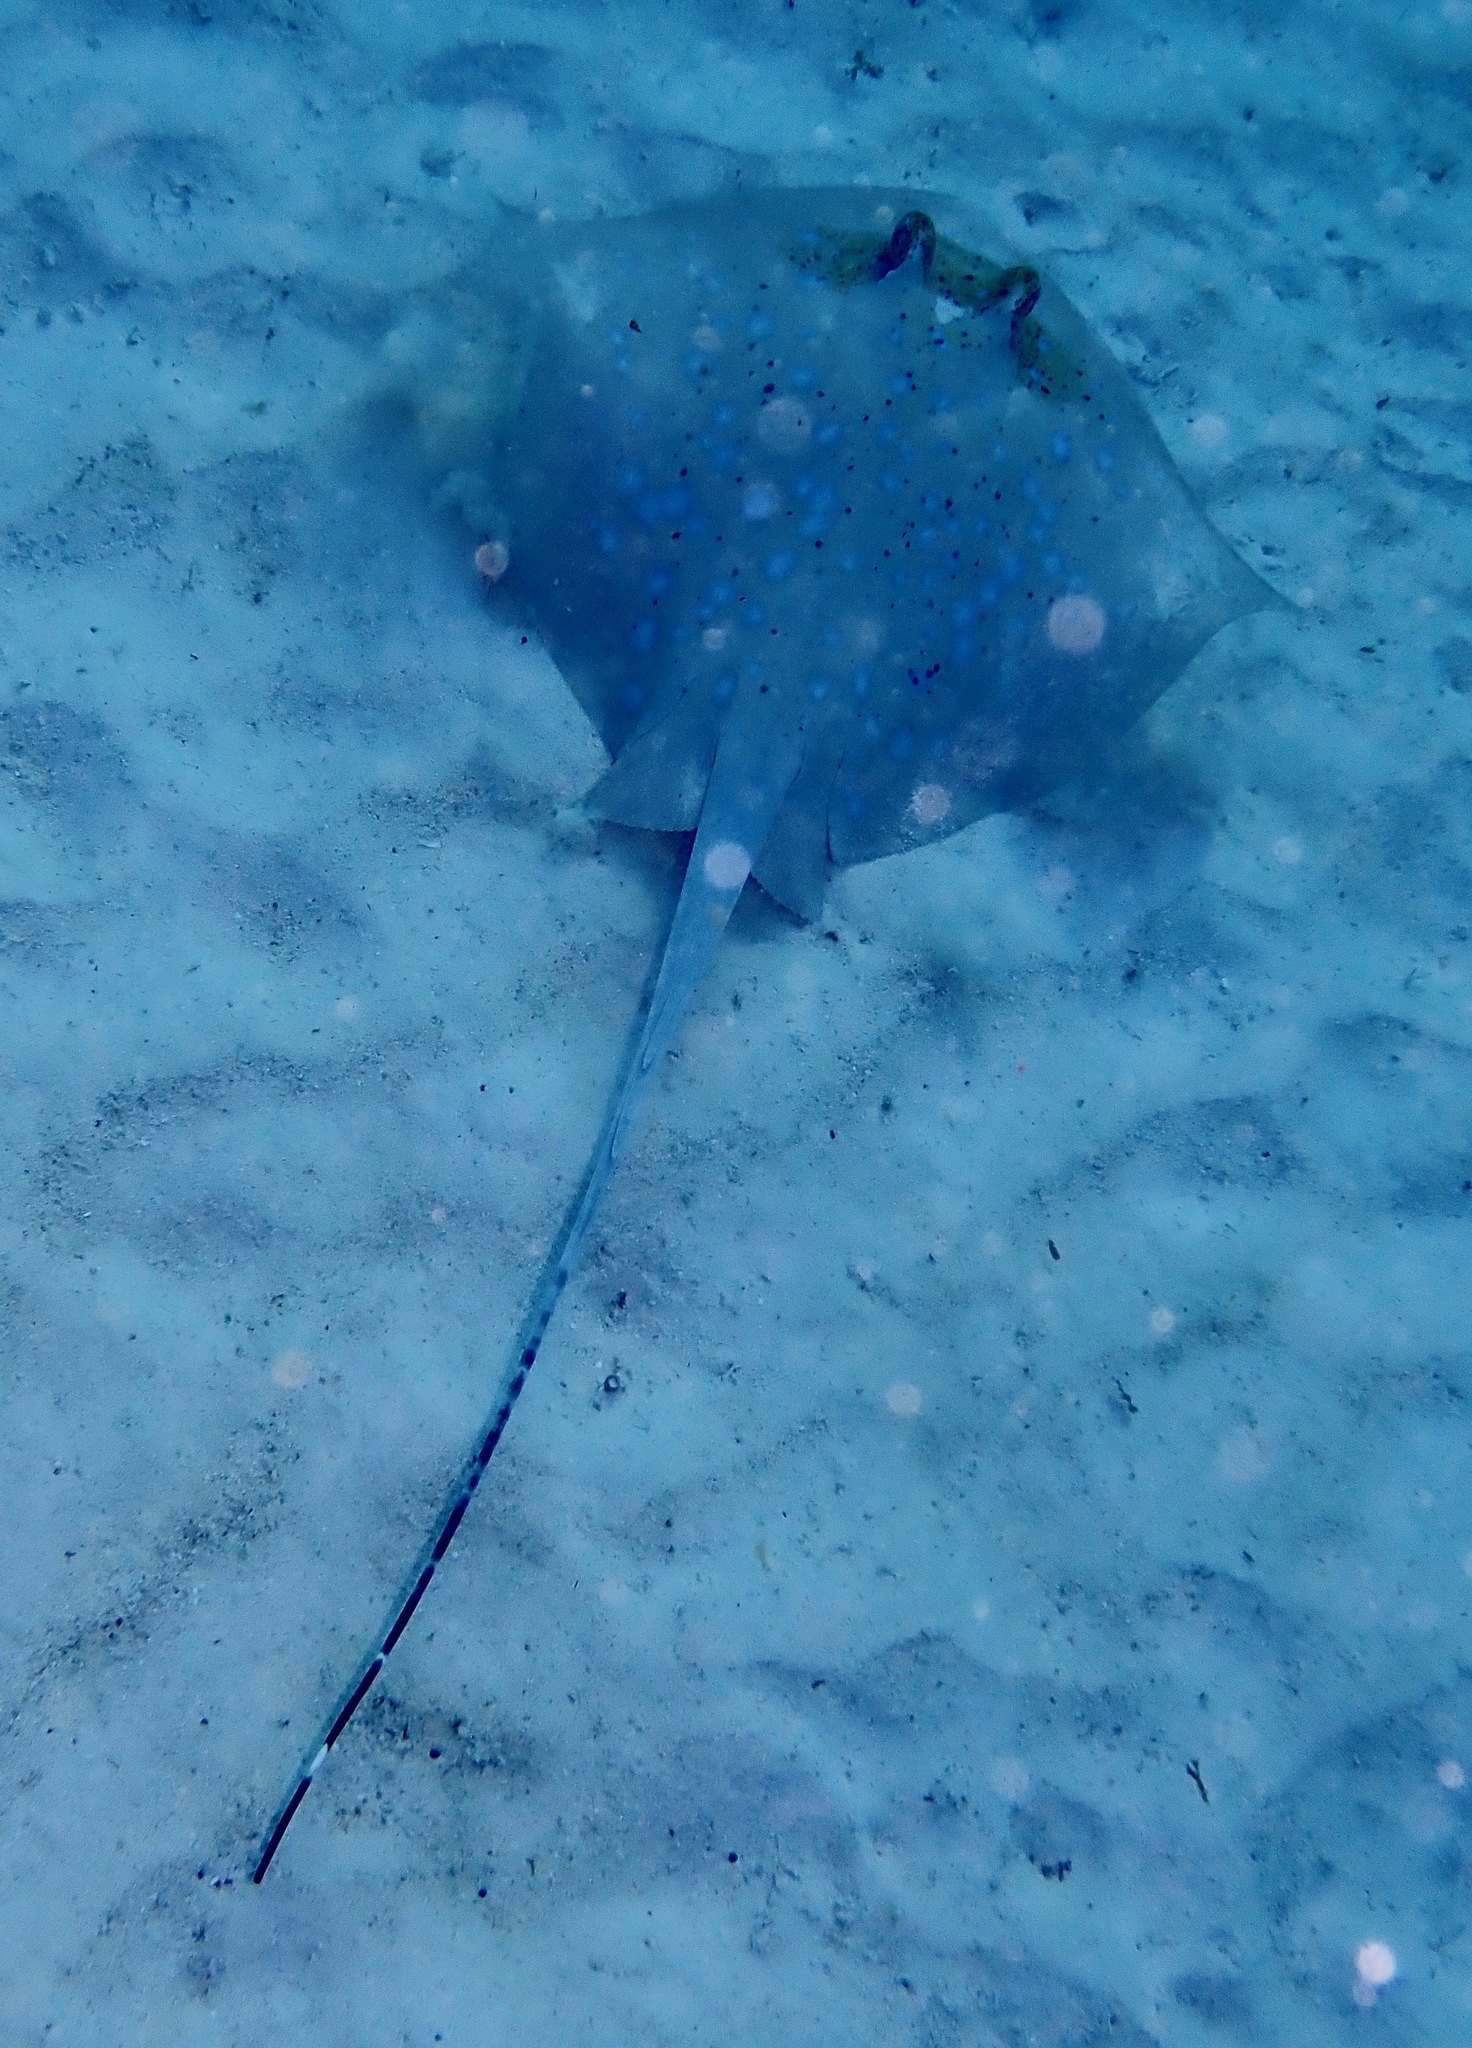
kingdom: Animalia
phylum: Chordata
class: Elasmobranchii
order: Myliobatiformes
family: Dasyatidae
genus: Neotrygon
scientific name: Neotrygon australiae
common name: Australian bluespotted maskray
